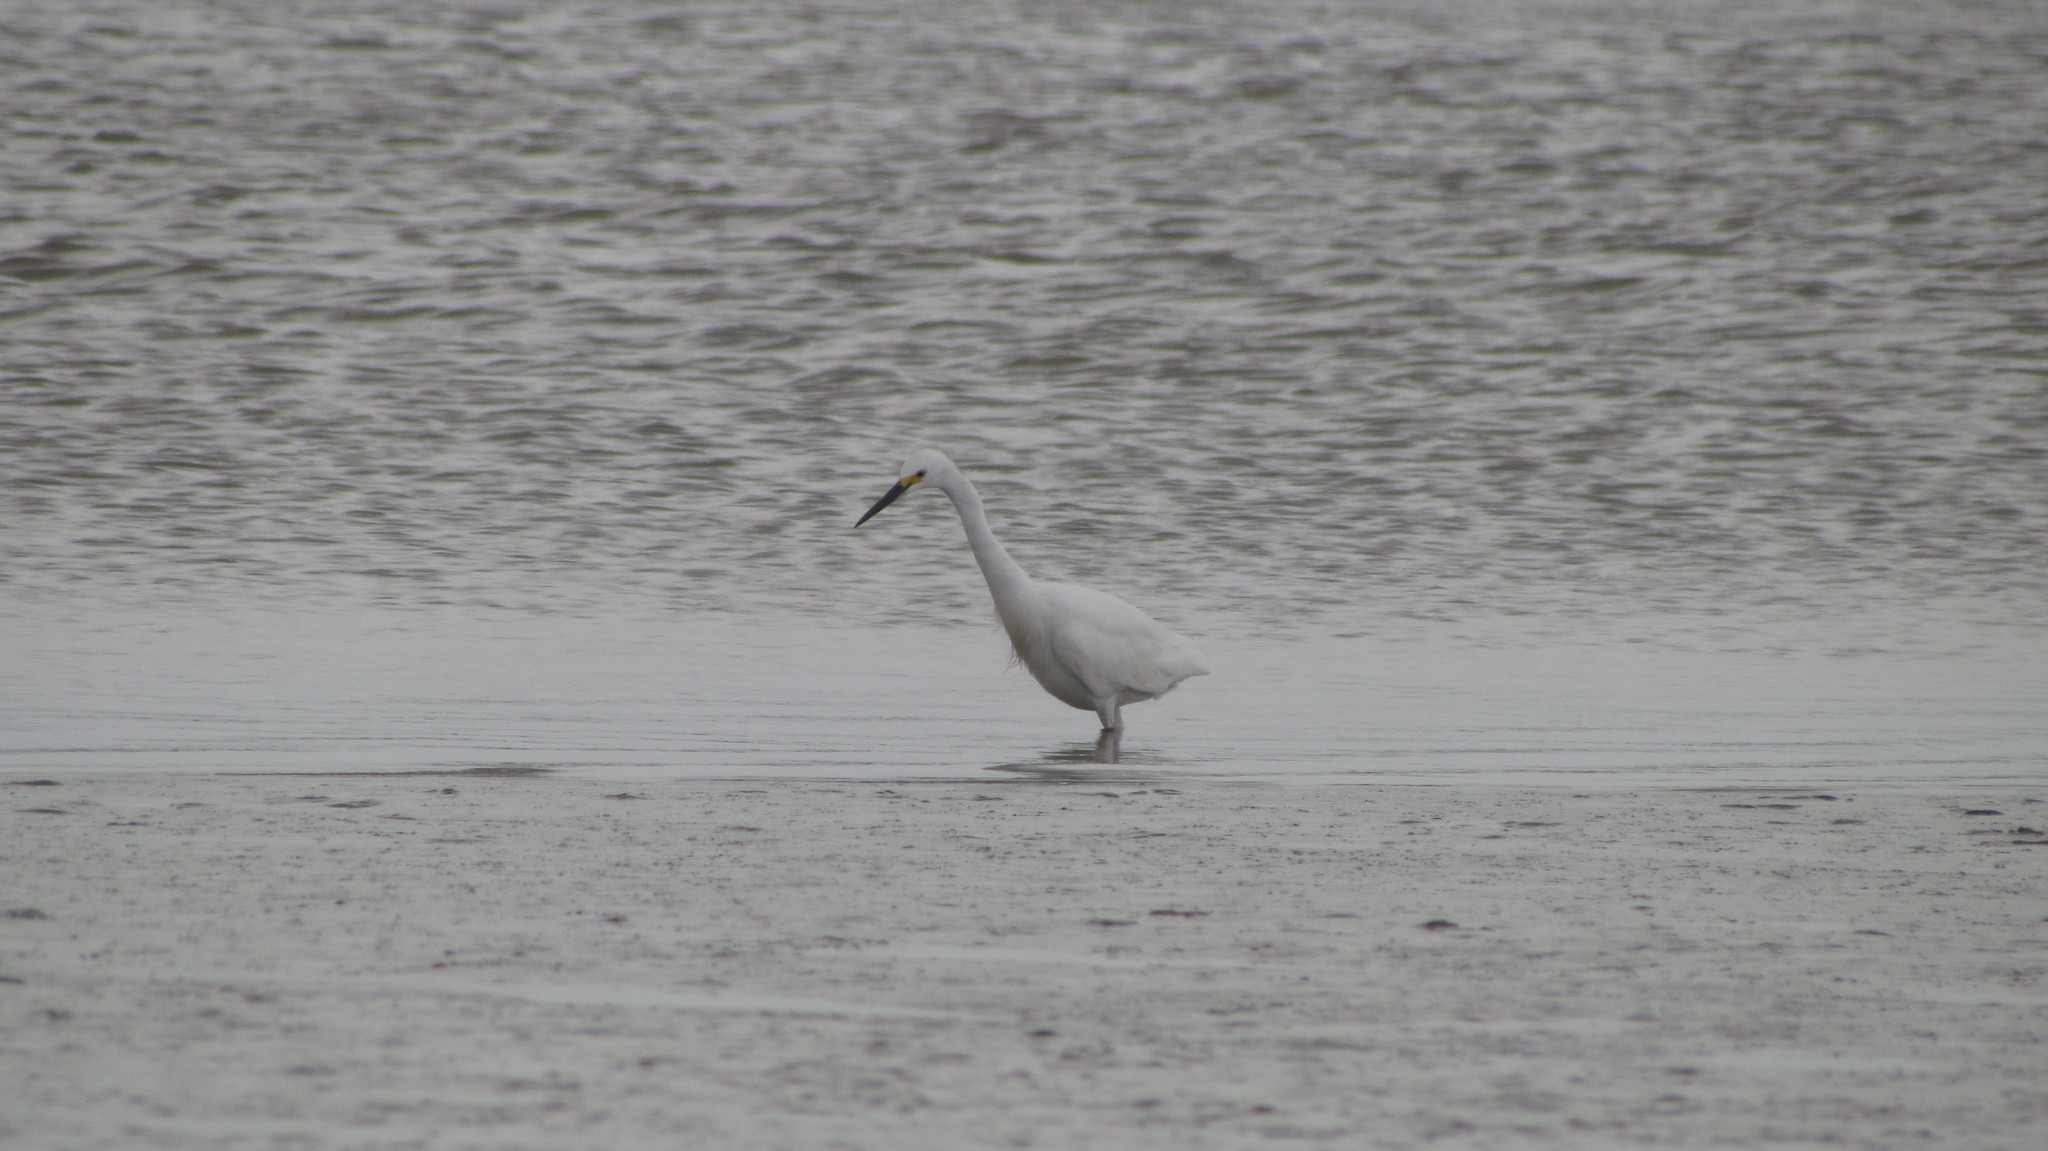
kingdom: Animalia
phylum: Chordata
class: Aves
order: Pelecaniformes
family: Ardeidae
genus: Egretta
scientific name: Egretta thula
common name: Snowy egret
